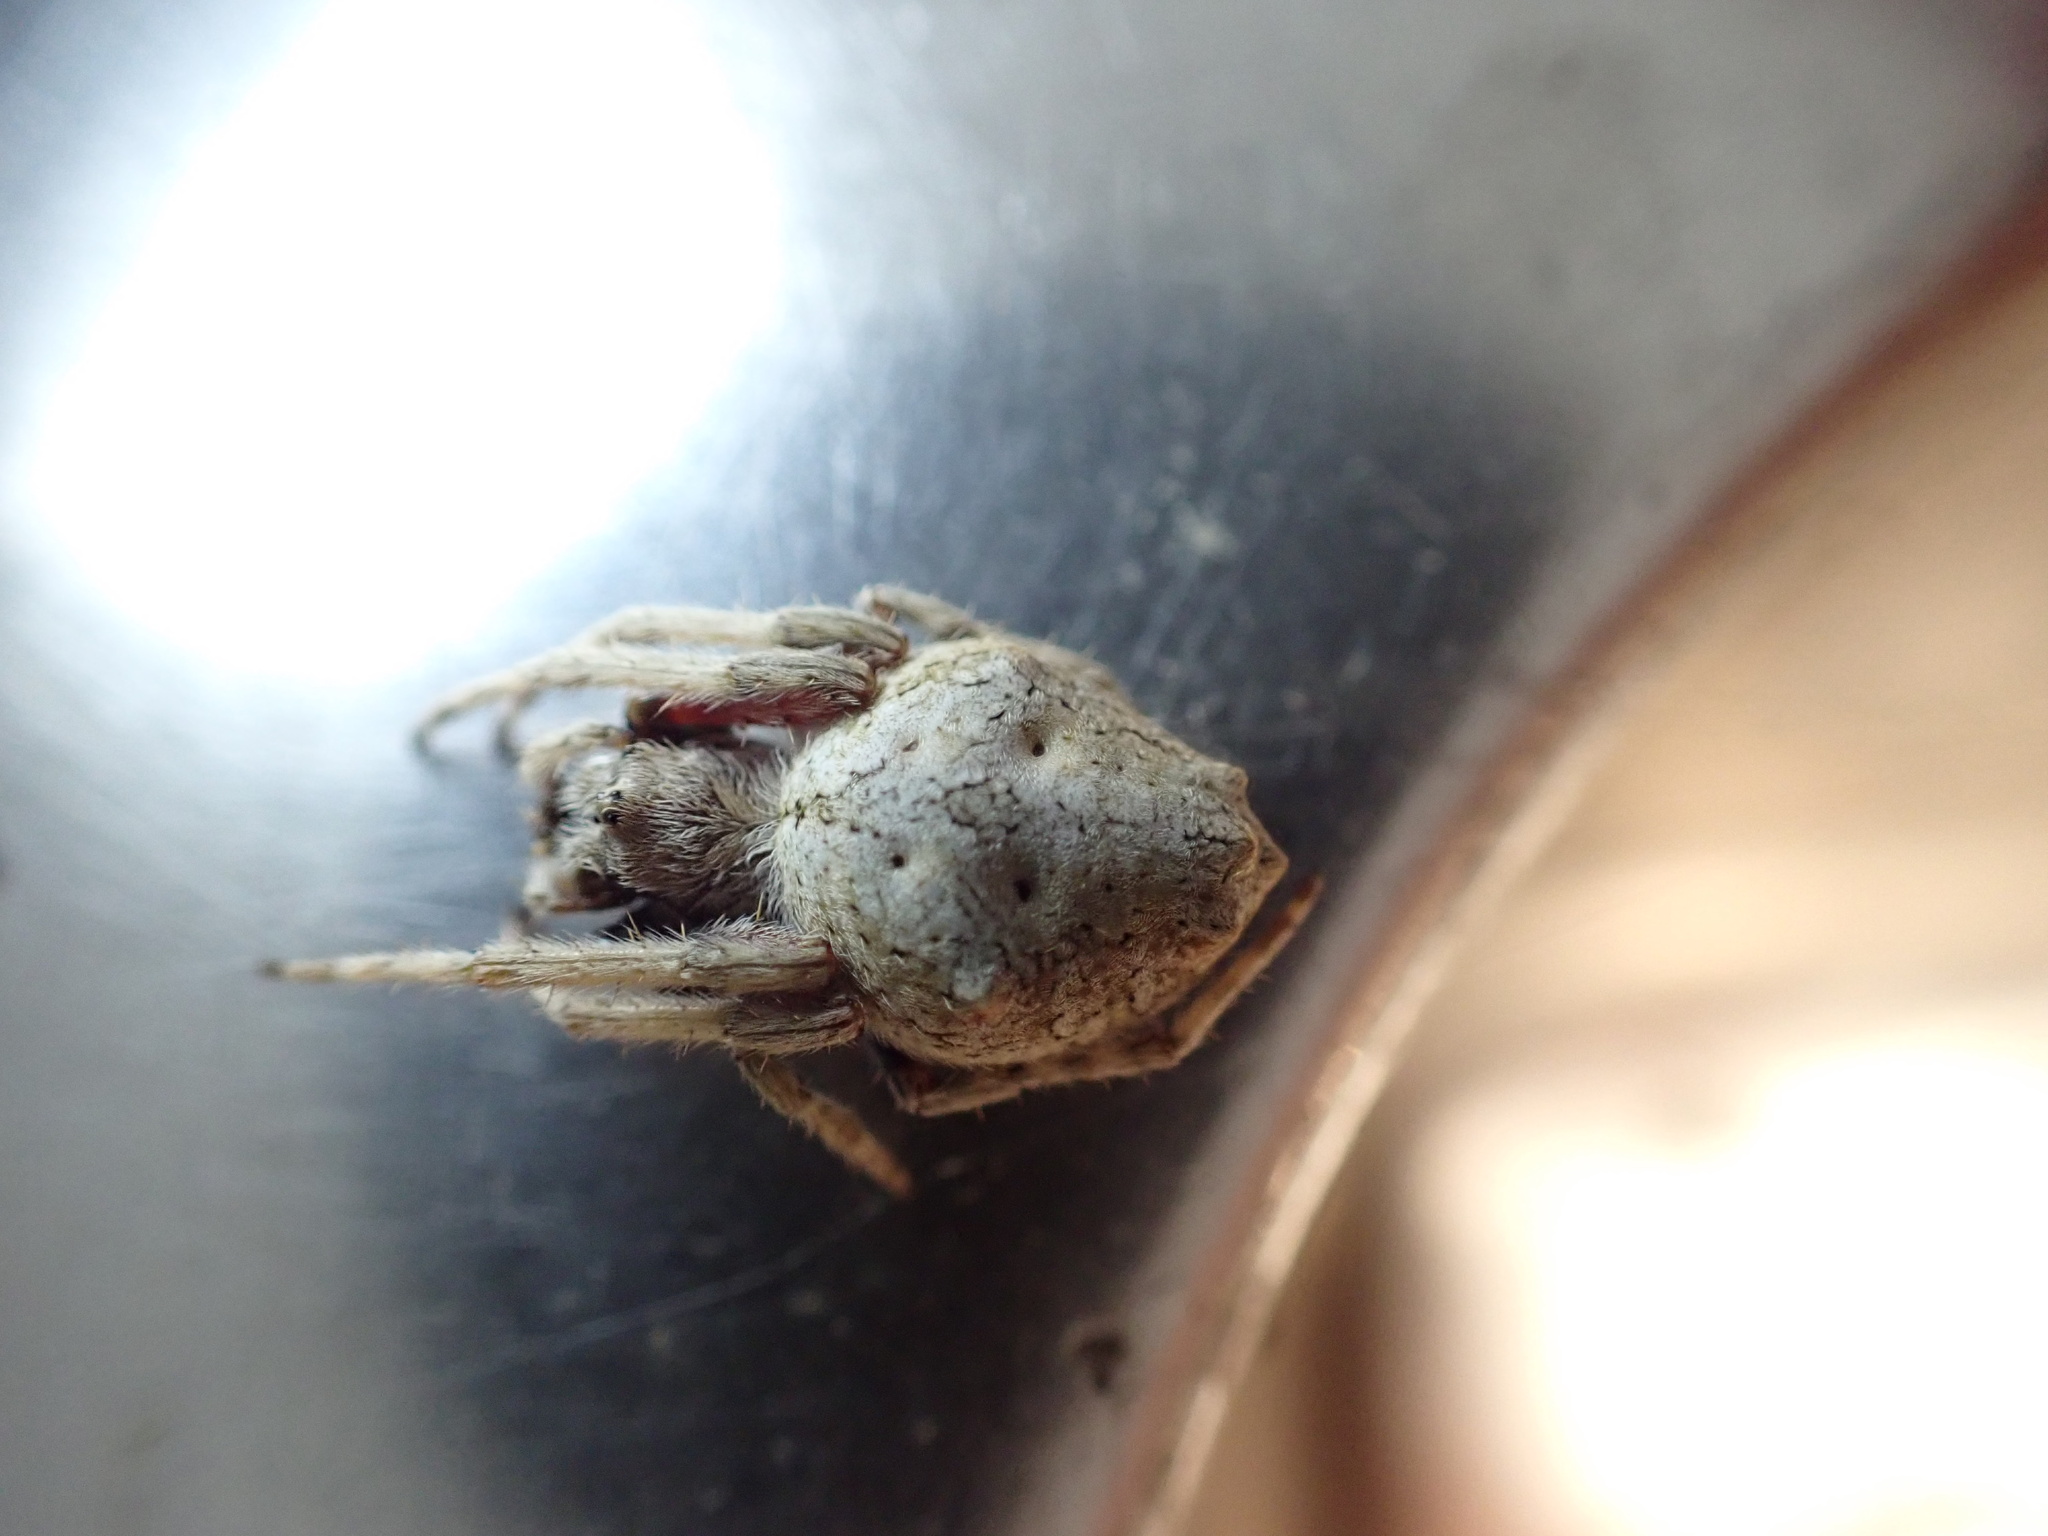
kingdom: Animalia
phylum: Arthropoda
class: Arachnida
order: Araneae
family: Araneidae
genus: Eriophora
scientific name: Eriophora pustulosa
